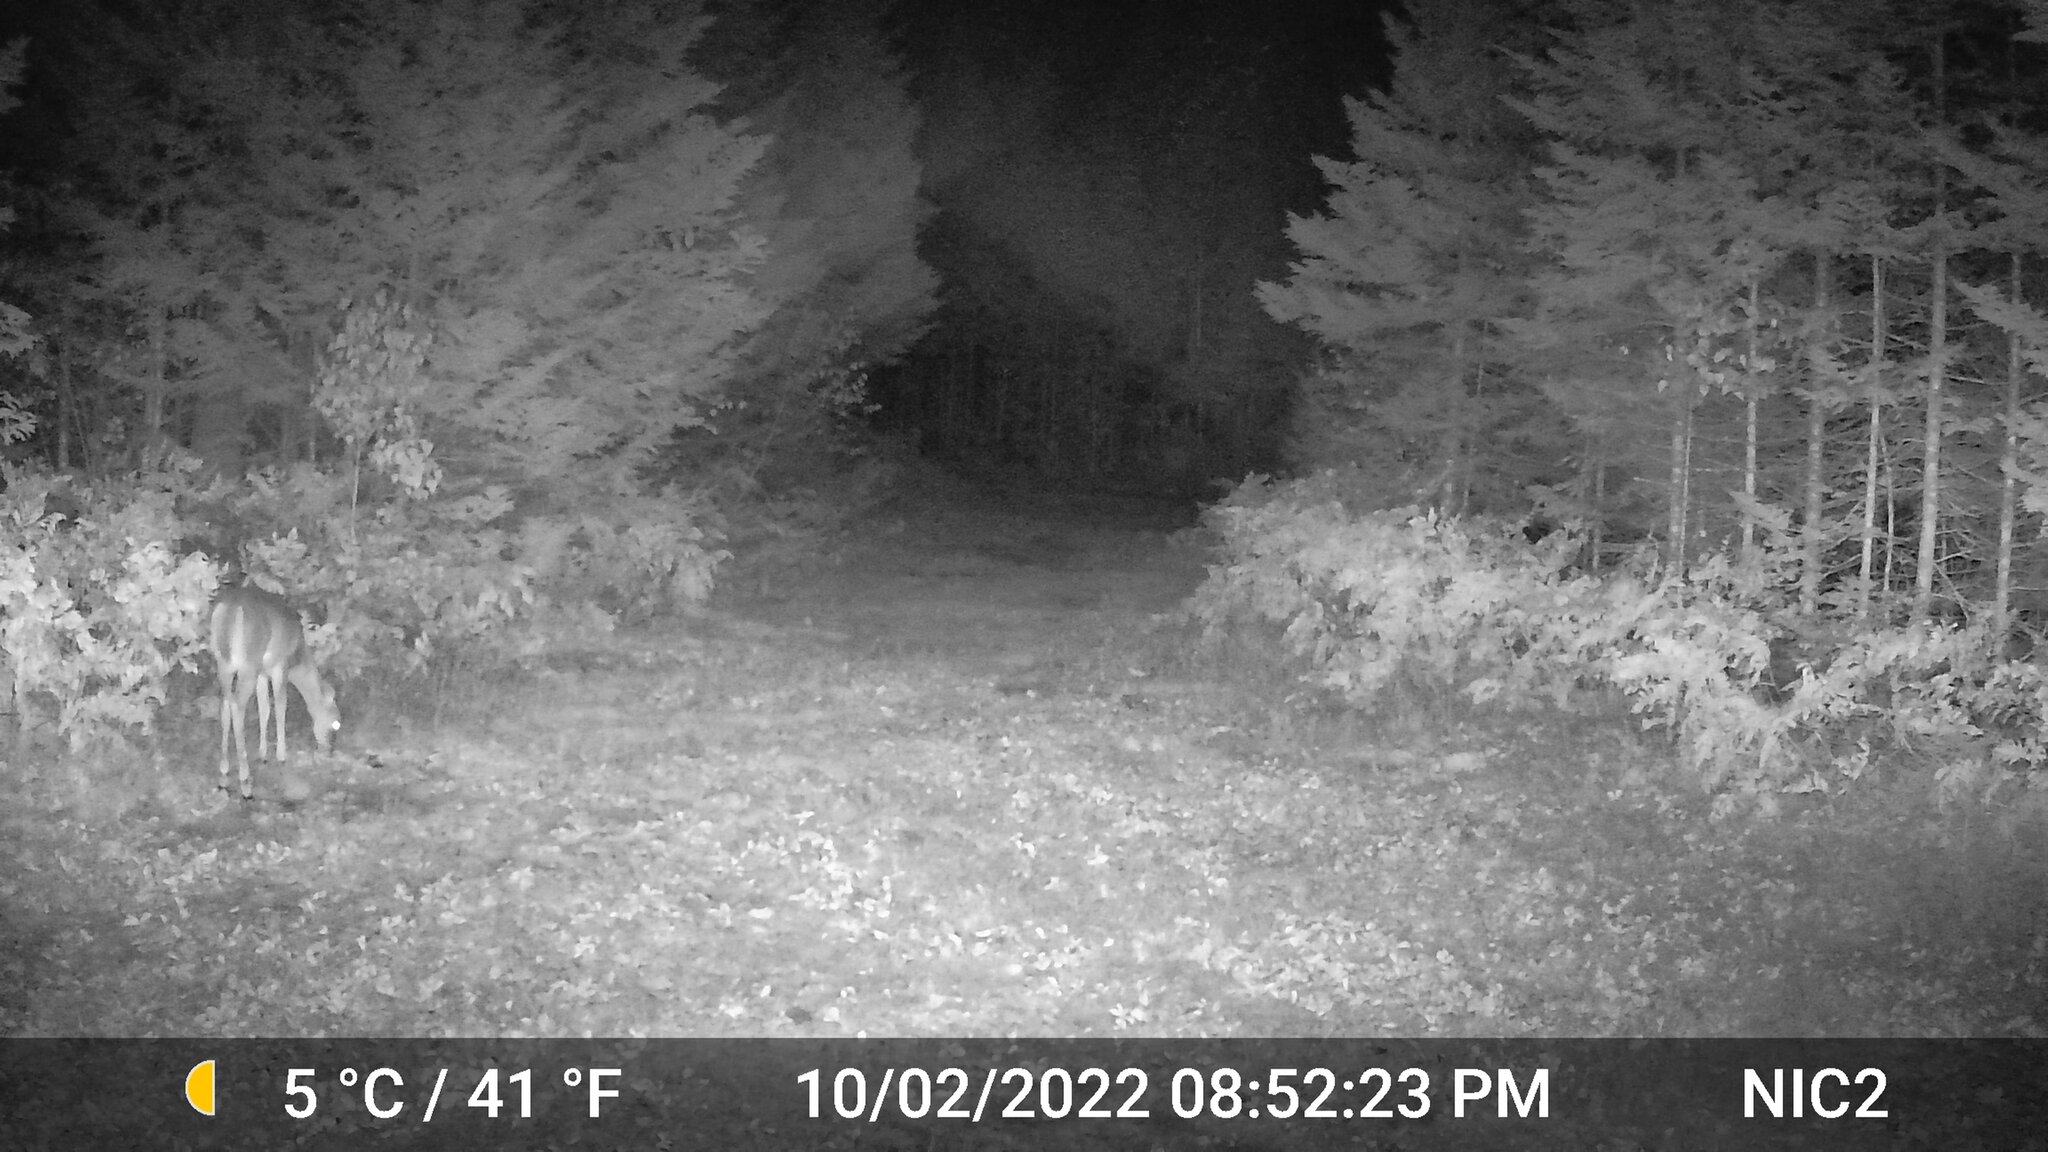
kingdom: Animalia
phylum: Chordata
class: Mammalia
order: Artiodactyla
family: Cervidae
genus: Odocoileus
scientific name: Odocoileus virginianus
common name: White-tailed deer
